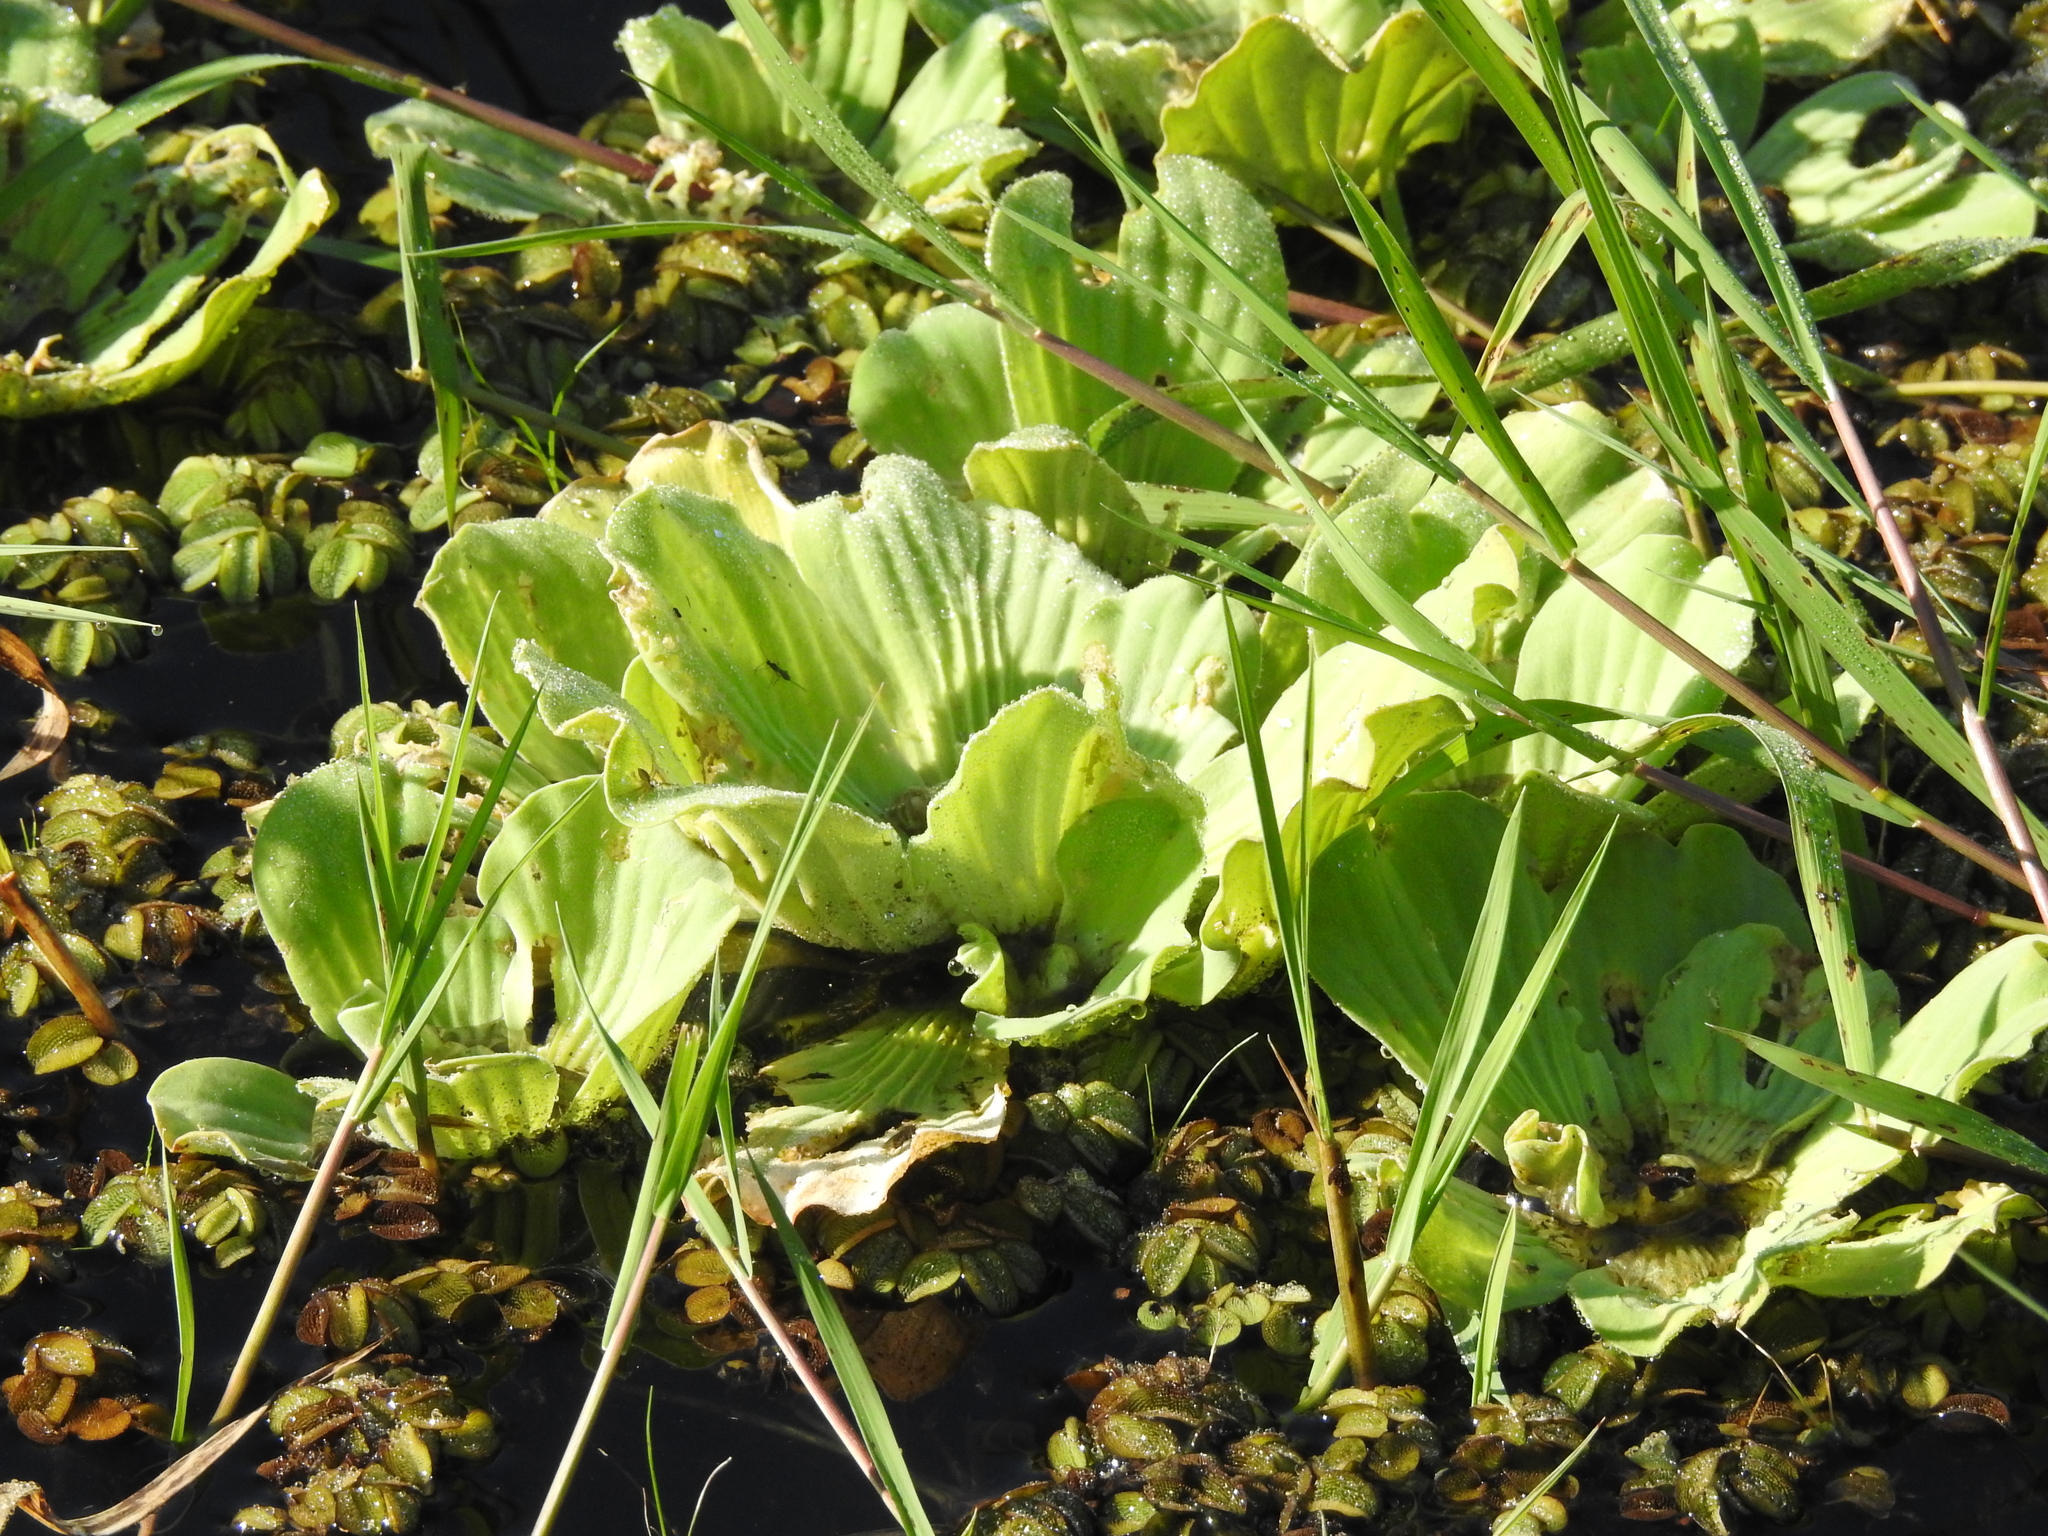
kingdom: Plantae
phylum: Tracheophyta
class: Liliopsida
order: Alismatales
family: Araceae
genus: Pistia
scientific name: Pistia stratiotes
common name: Water lettuce
